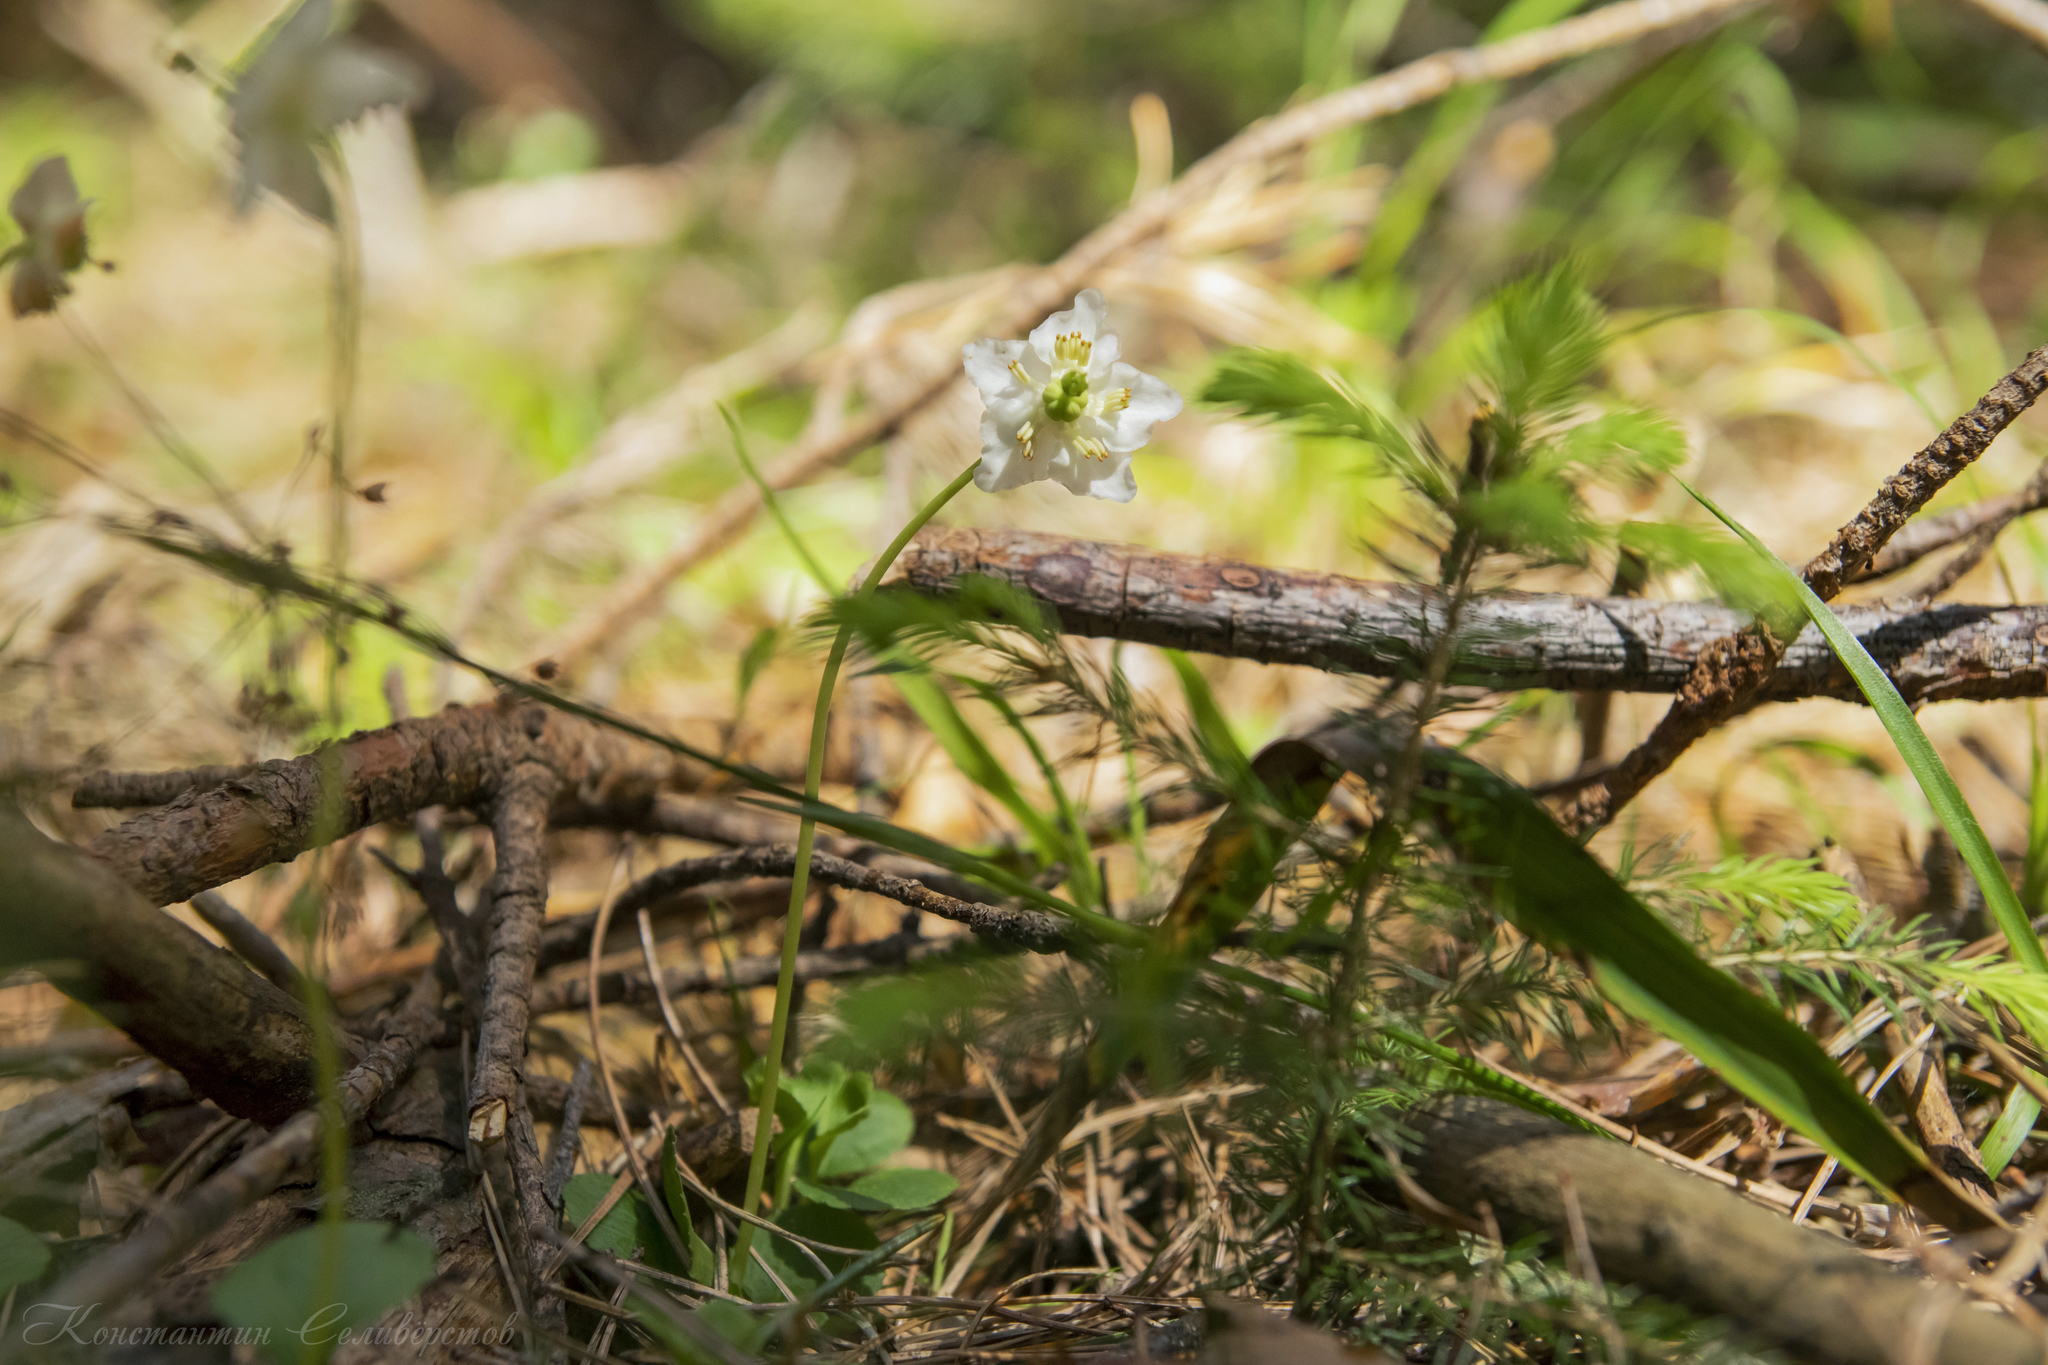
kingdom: Plantae
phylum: Tracheophyta
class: Magnoliopsida
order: Ericales
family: Ericaceae
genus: Moneses
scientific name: Moneses uniflora
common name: One-flowered wintergreen
